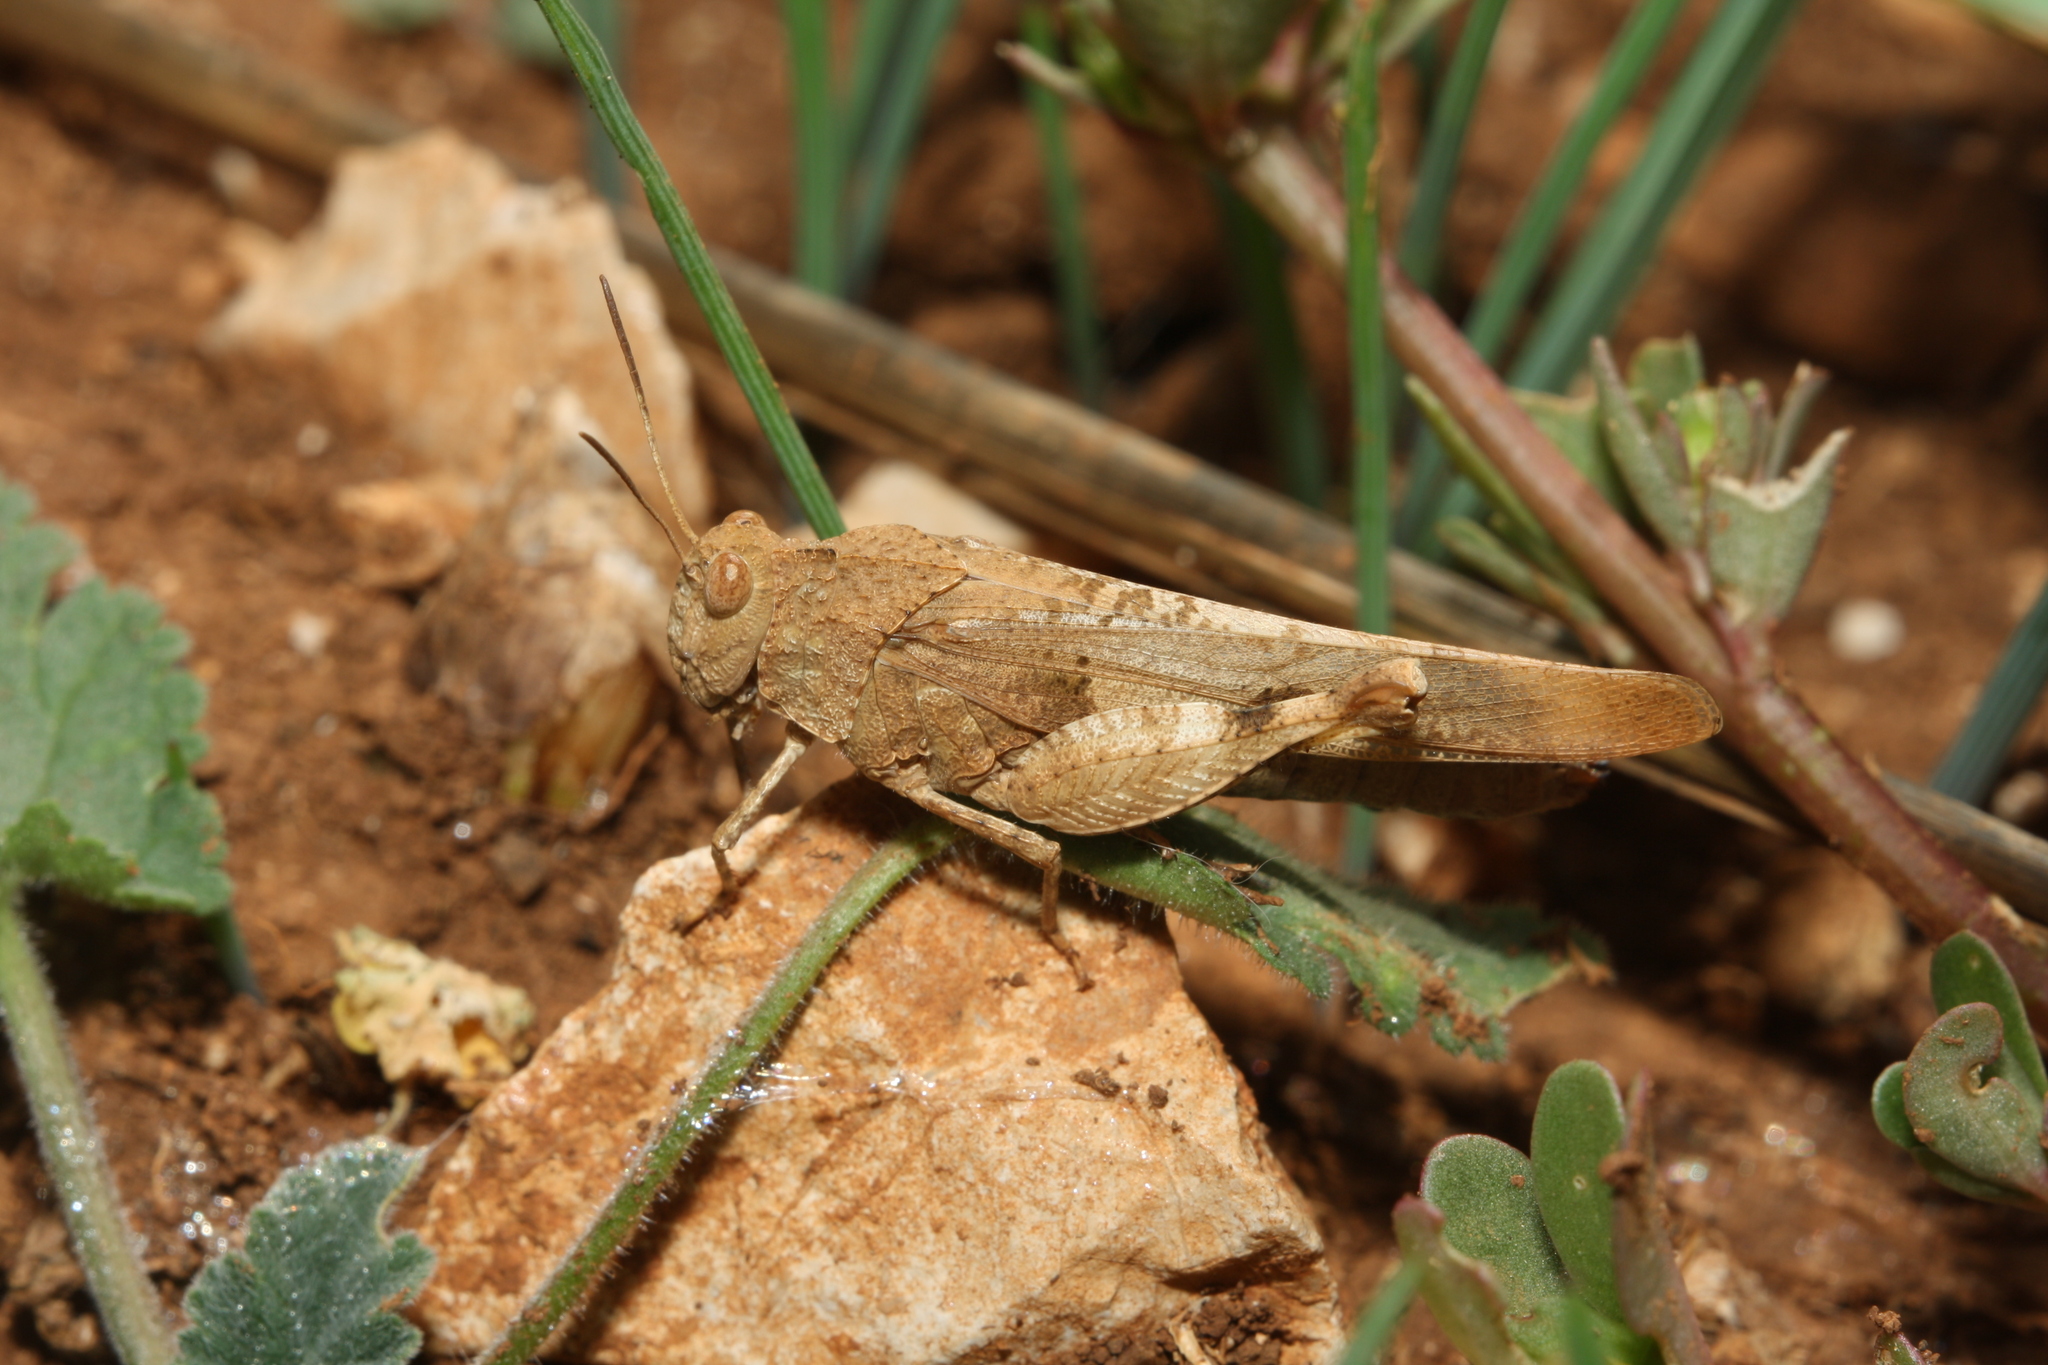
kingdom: Animalia
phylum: Arthropoda
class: Insecta
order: Orthoptera
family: Acrididae
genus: Oedipoda
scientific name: Oedipoda caerulescens
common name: Blue-winged grasshopper
